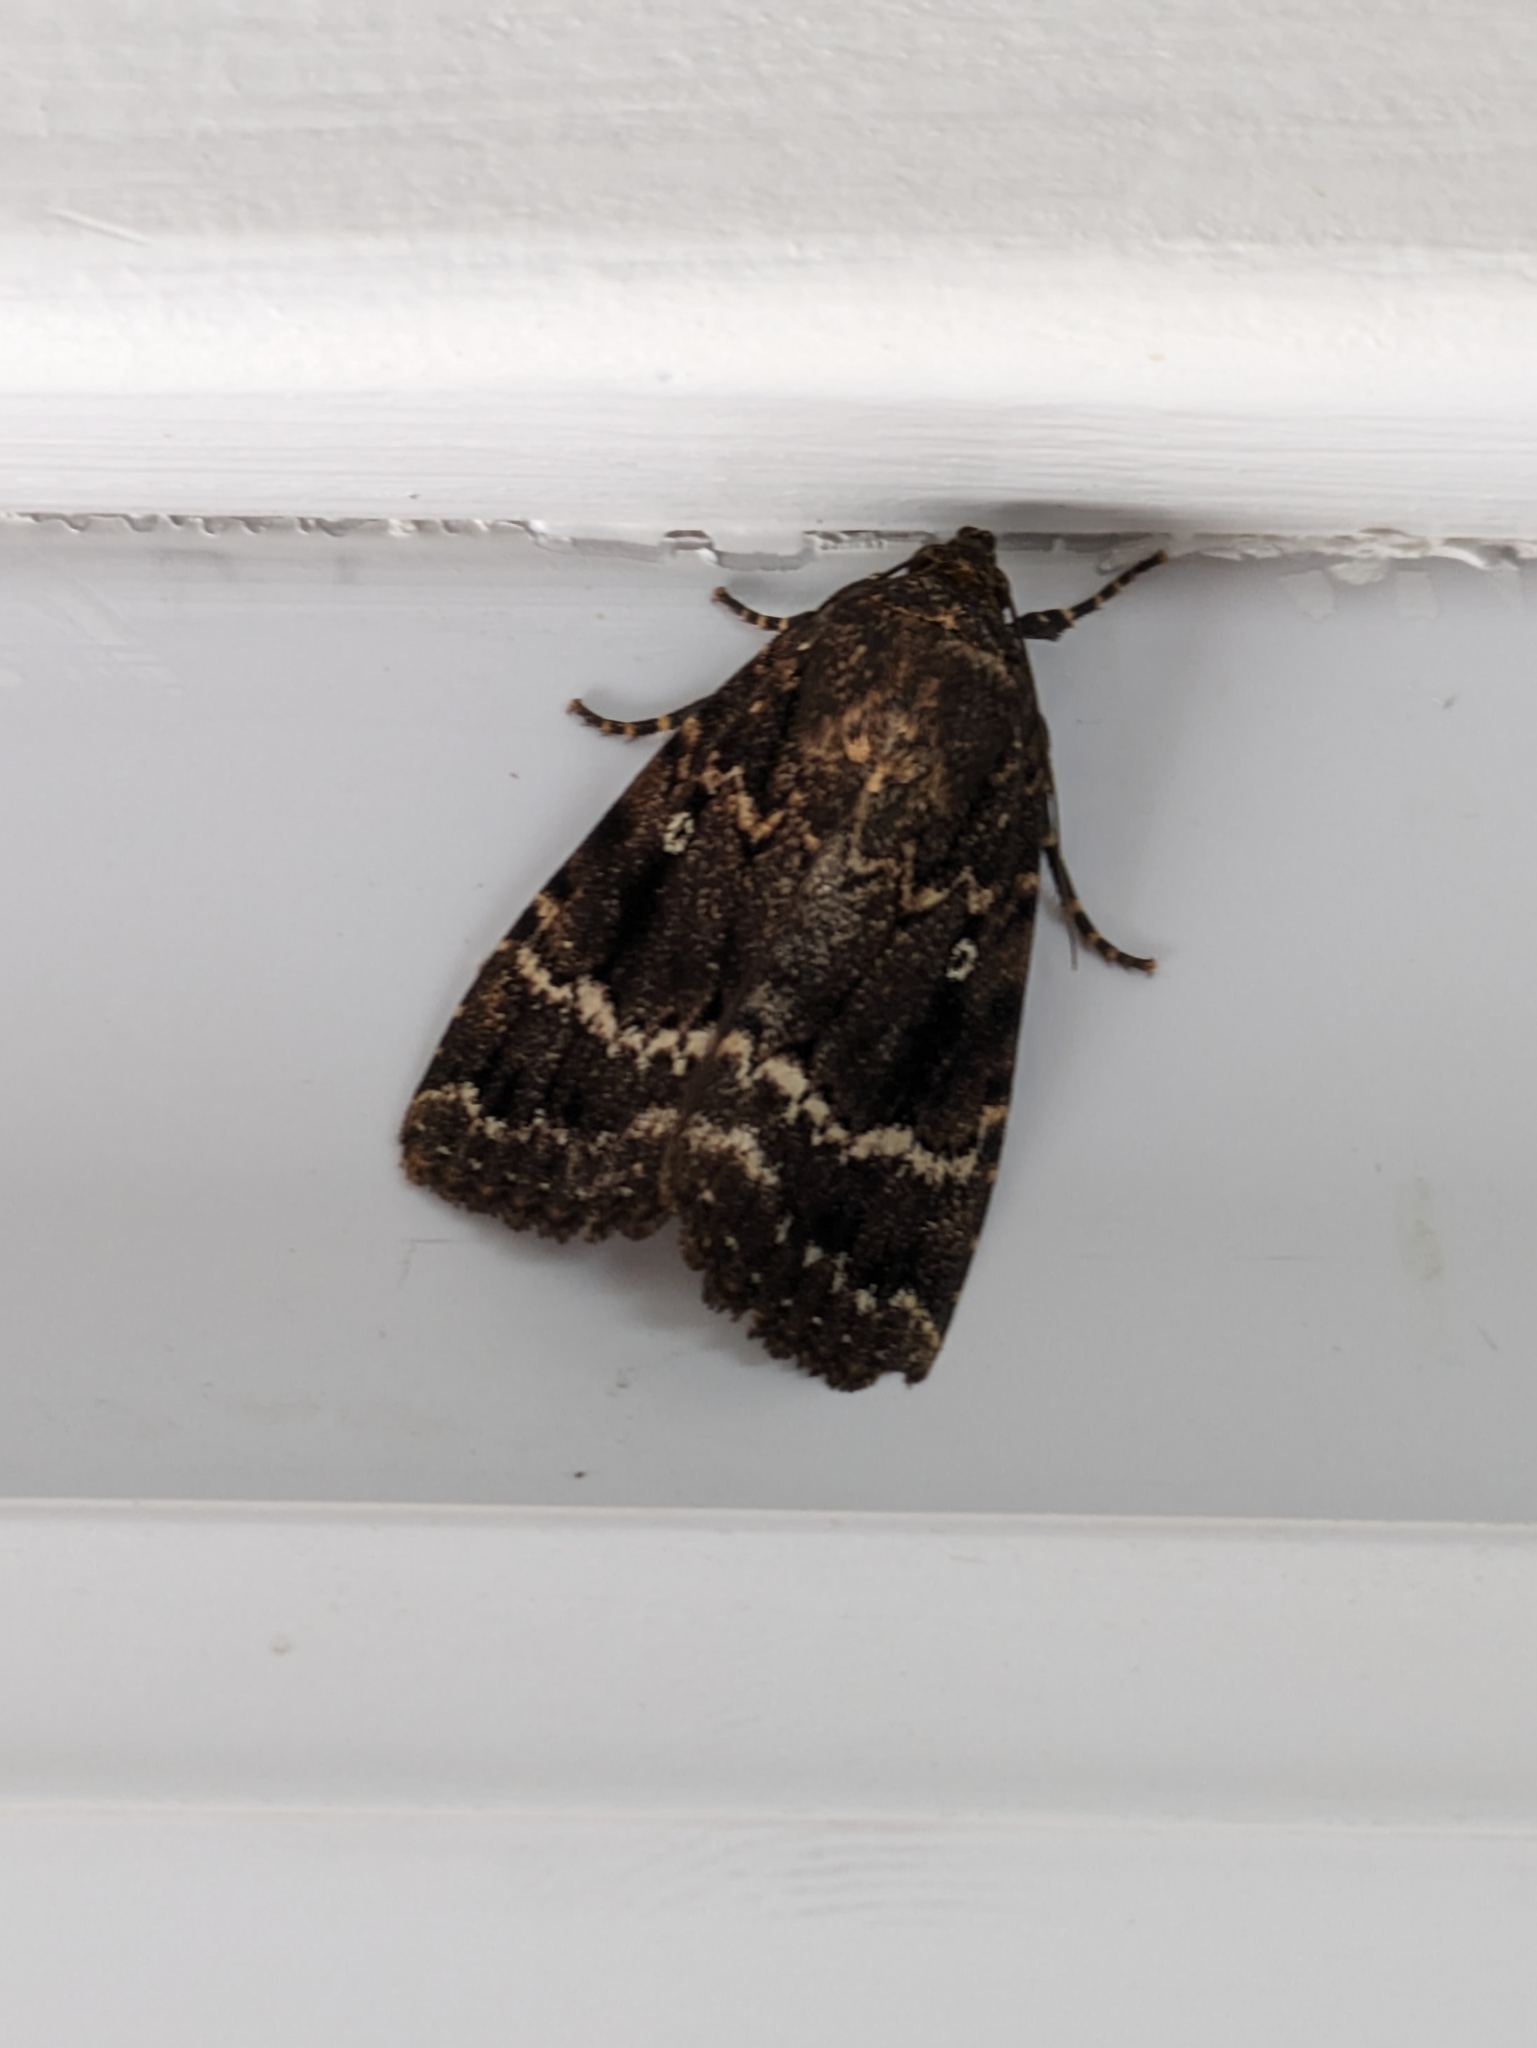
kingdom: Animalia
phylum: Arthropoda
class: Insecta
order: Lepidoptera
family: Noctuidae
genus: Amphipyra
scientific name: Amphipyra pyramidea
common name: Copper underwing
